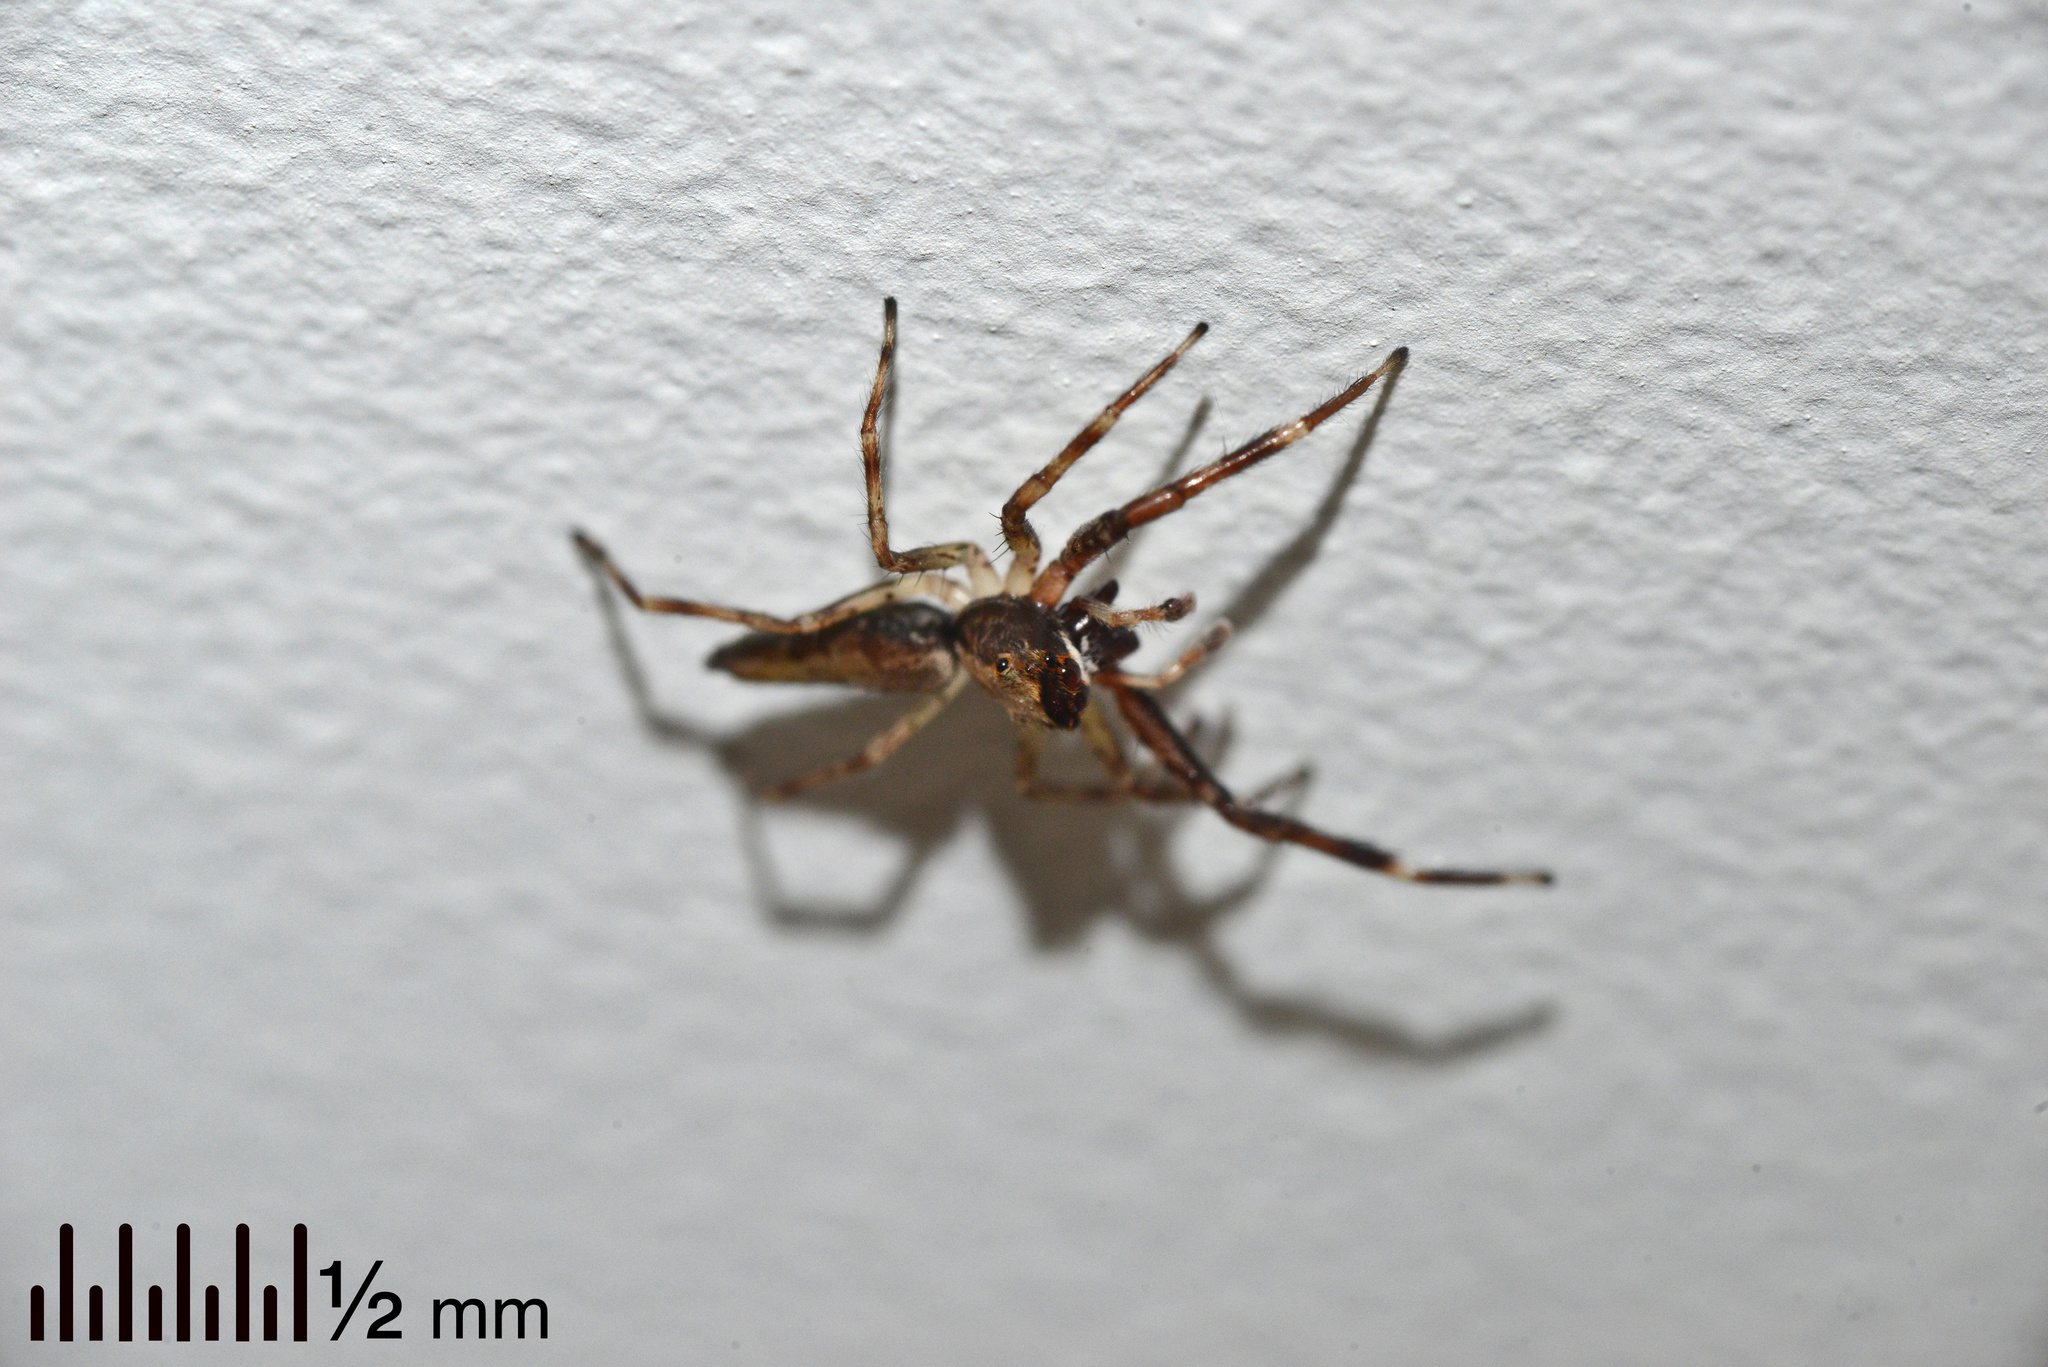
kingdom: Animalia
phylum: Arthropoda
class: Arachnida
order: Araneae
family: Salticidae
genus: Helpis
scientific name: Helpis minitabunda
